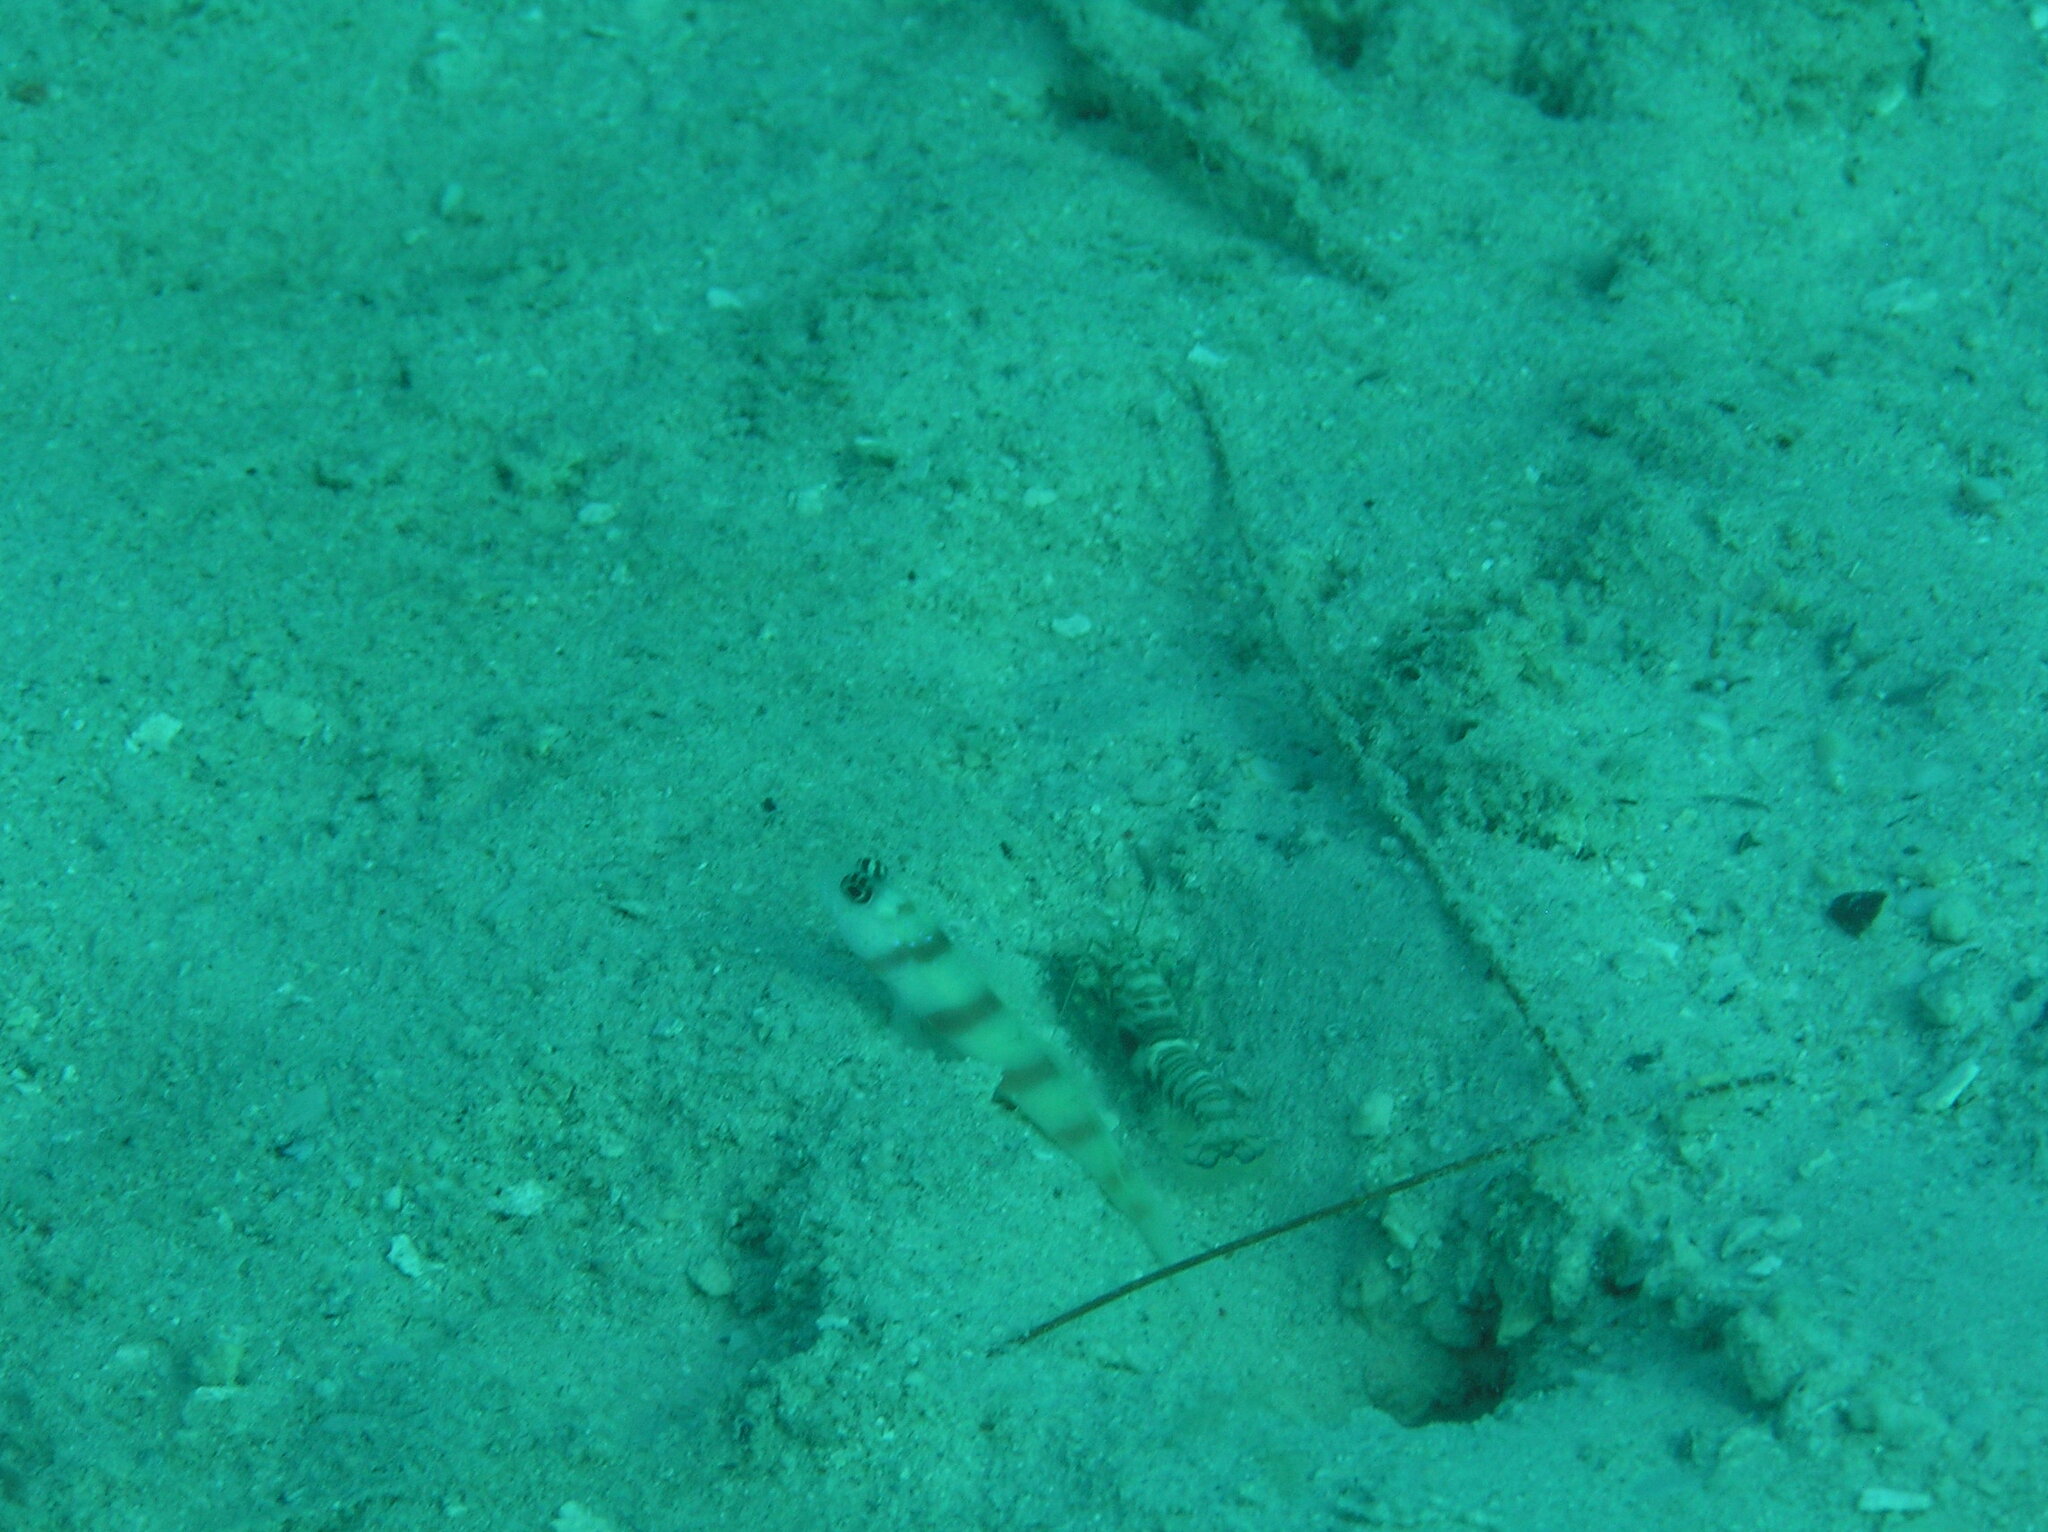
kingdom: Animalia
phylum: Chordata
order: Perciformes
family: Gobiidae
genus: Amblyeleotris
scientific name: Amblyeleotris steinitzi
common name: Steinitz' prawn-goby
